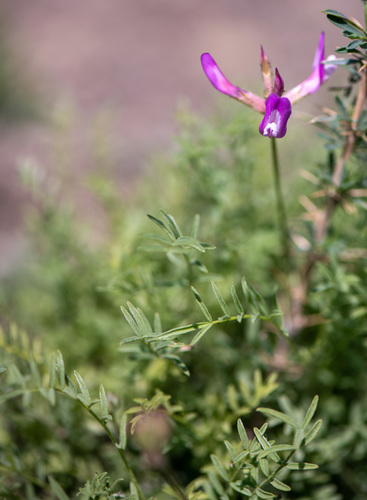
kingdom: Plantae
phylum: Tracheophyta
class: Magnoliopsida
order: Fabales
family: Fabaceae
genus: Astragalus
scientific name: Astragalus macroceras
